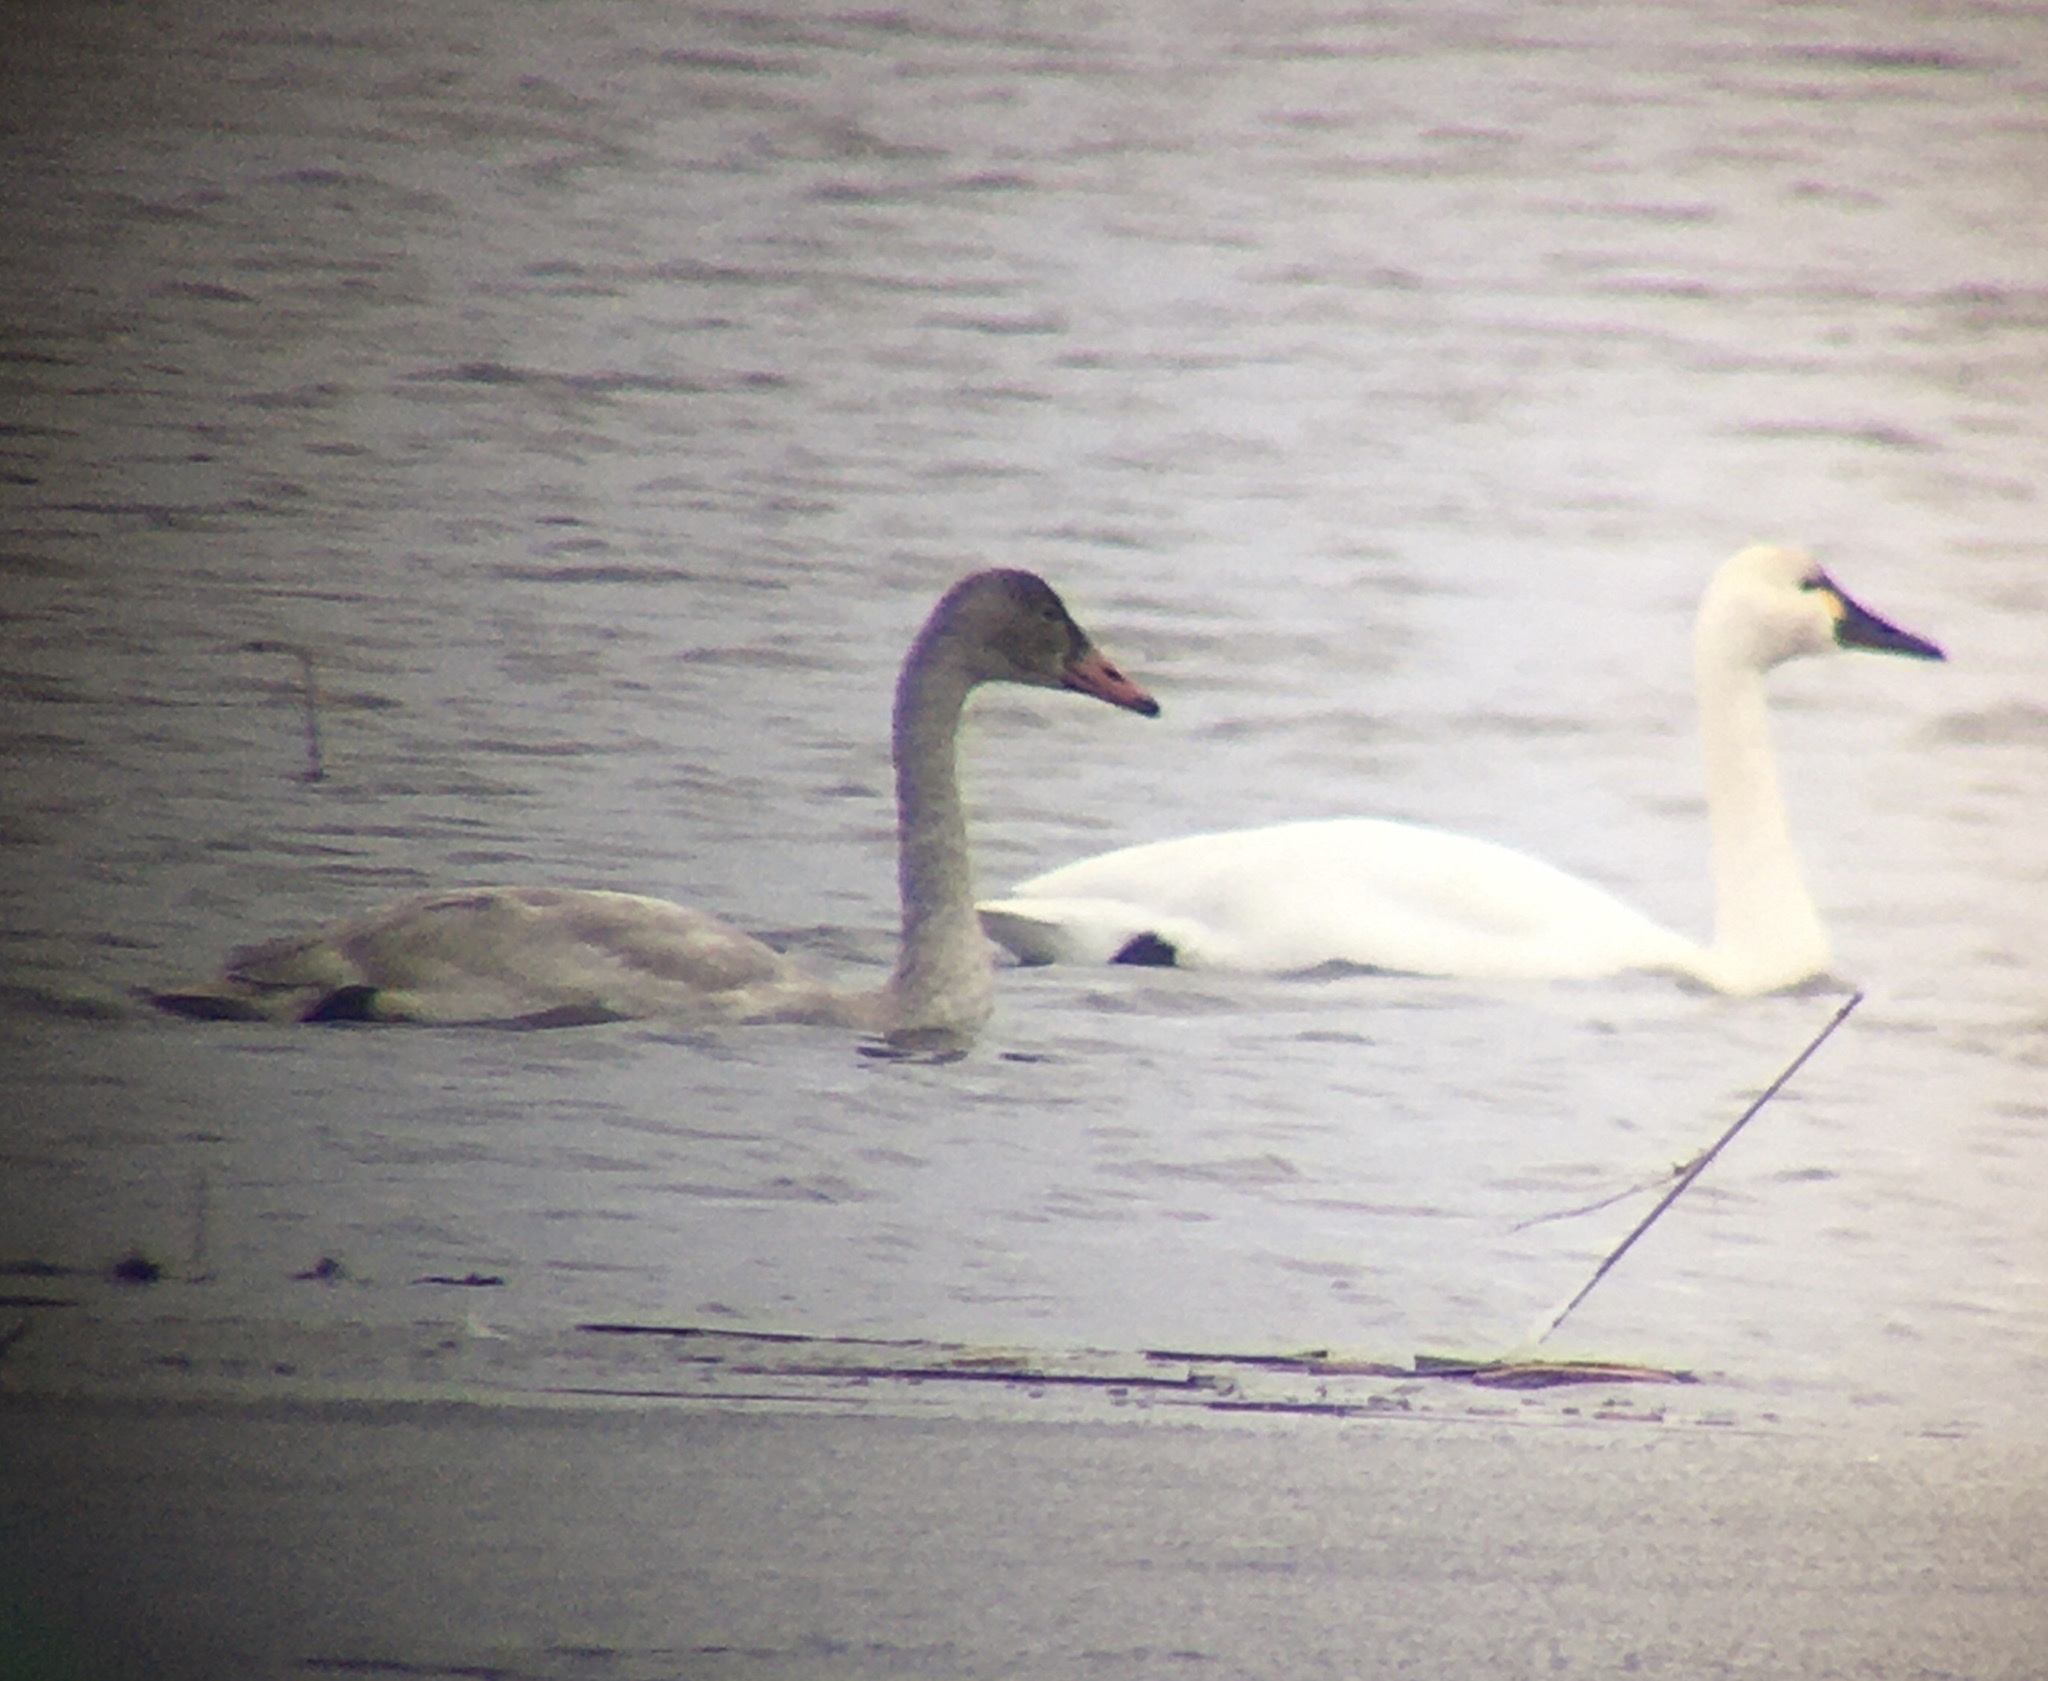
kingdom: Animalia
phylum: Chordata
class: Aves
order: Anseriformes
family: Anatidae
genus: Cygnus
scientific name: Cygnus columbianus
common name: Tundra swan
